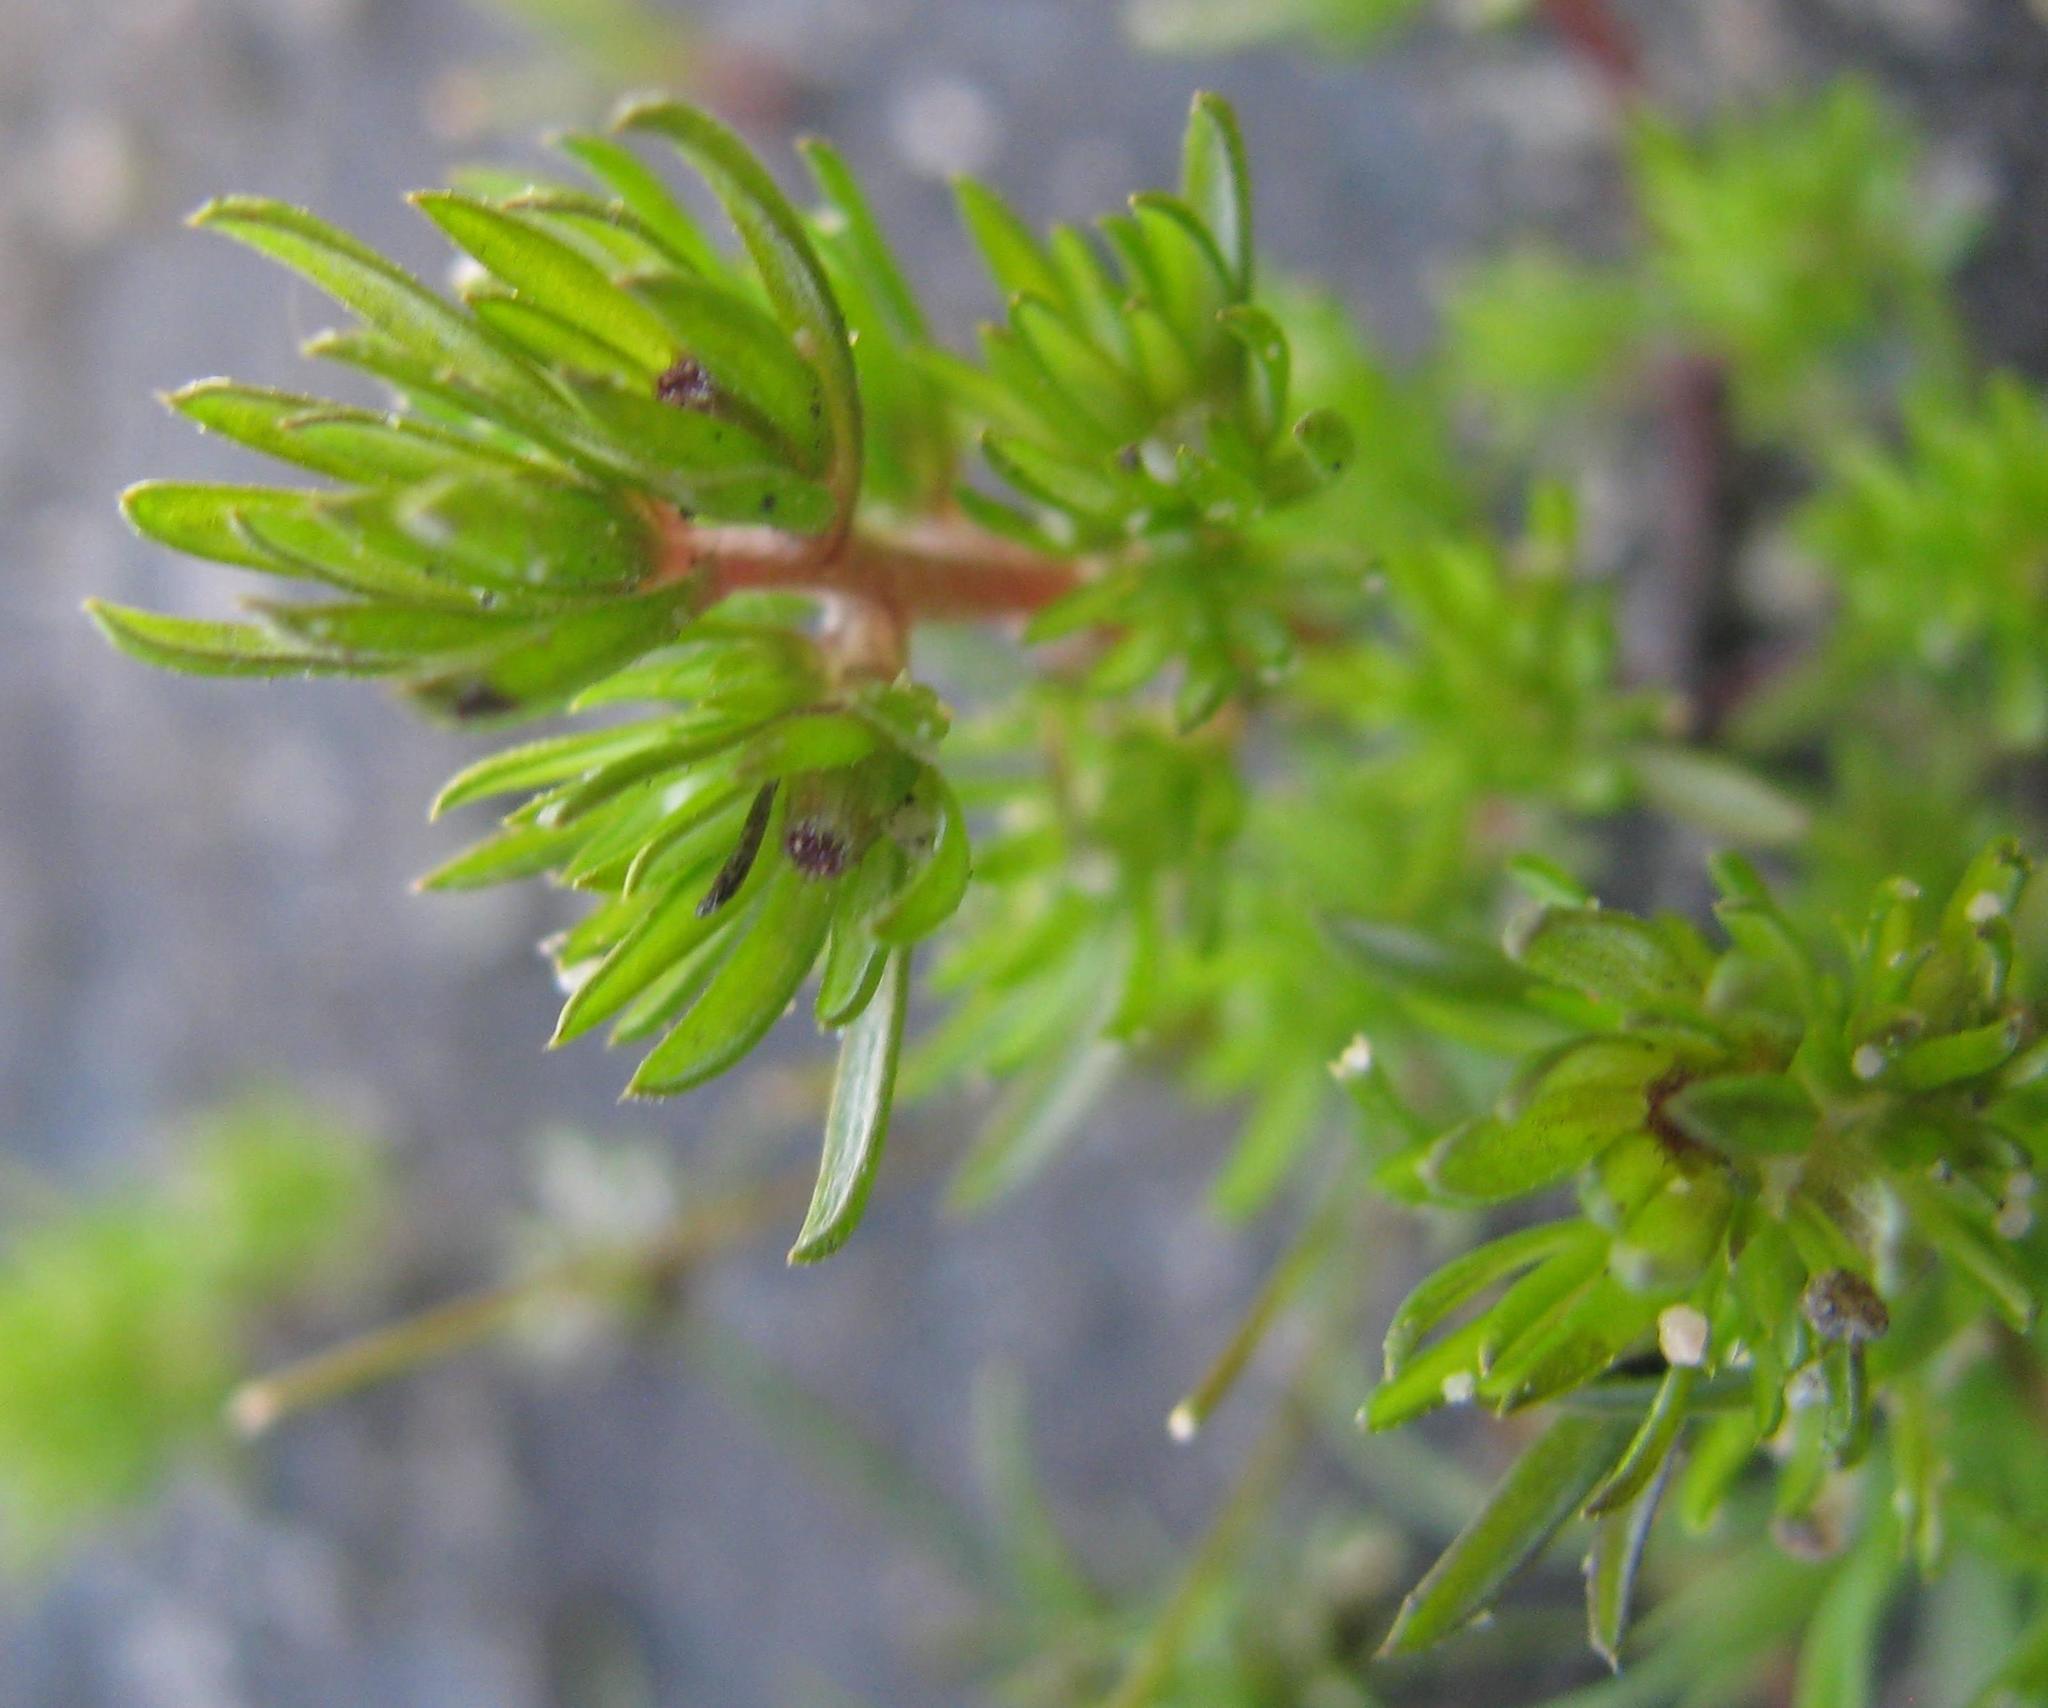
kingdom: Plantae
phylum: Tracheophyta
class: Magnoliopsida
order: Asterales
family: Asteraceae
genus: Ifloga
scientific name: Ifloga thellungiana
